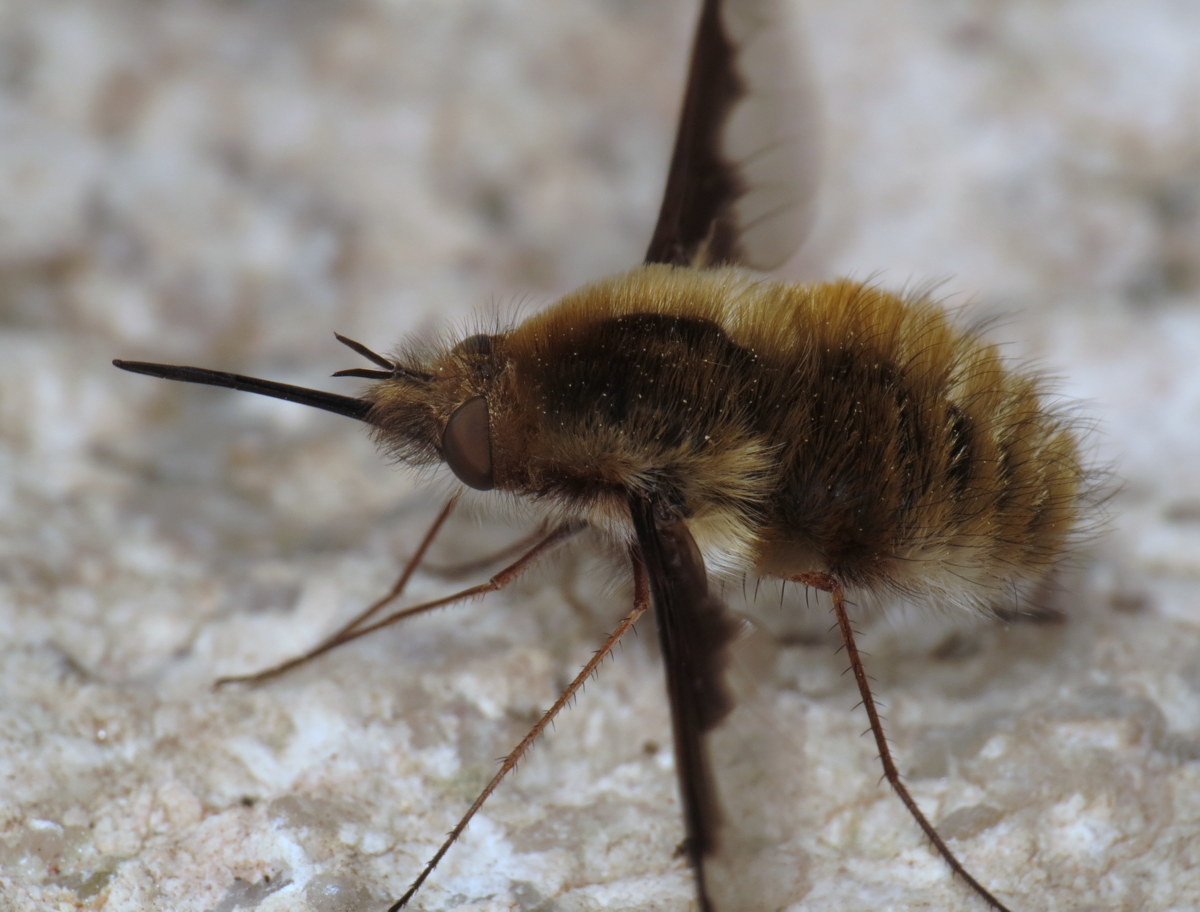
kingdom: Animalia
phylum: Arthropoda
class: Insecta
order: Diptera
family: Bombyliidae
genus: Bombylius
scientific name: Bombylius major
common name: Bee fly
